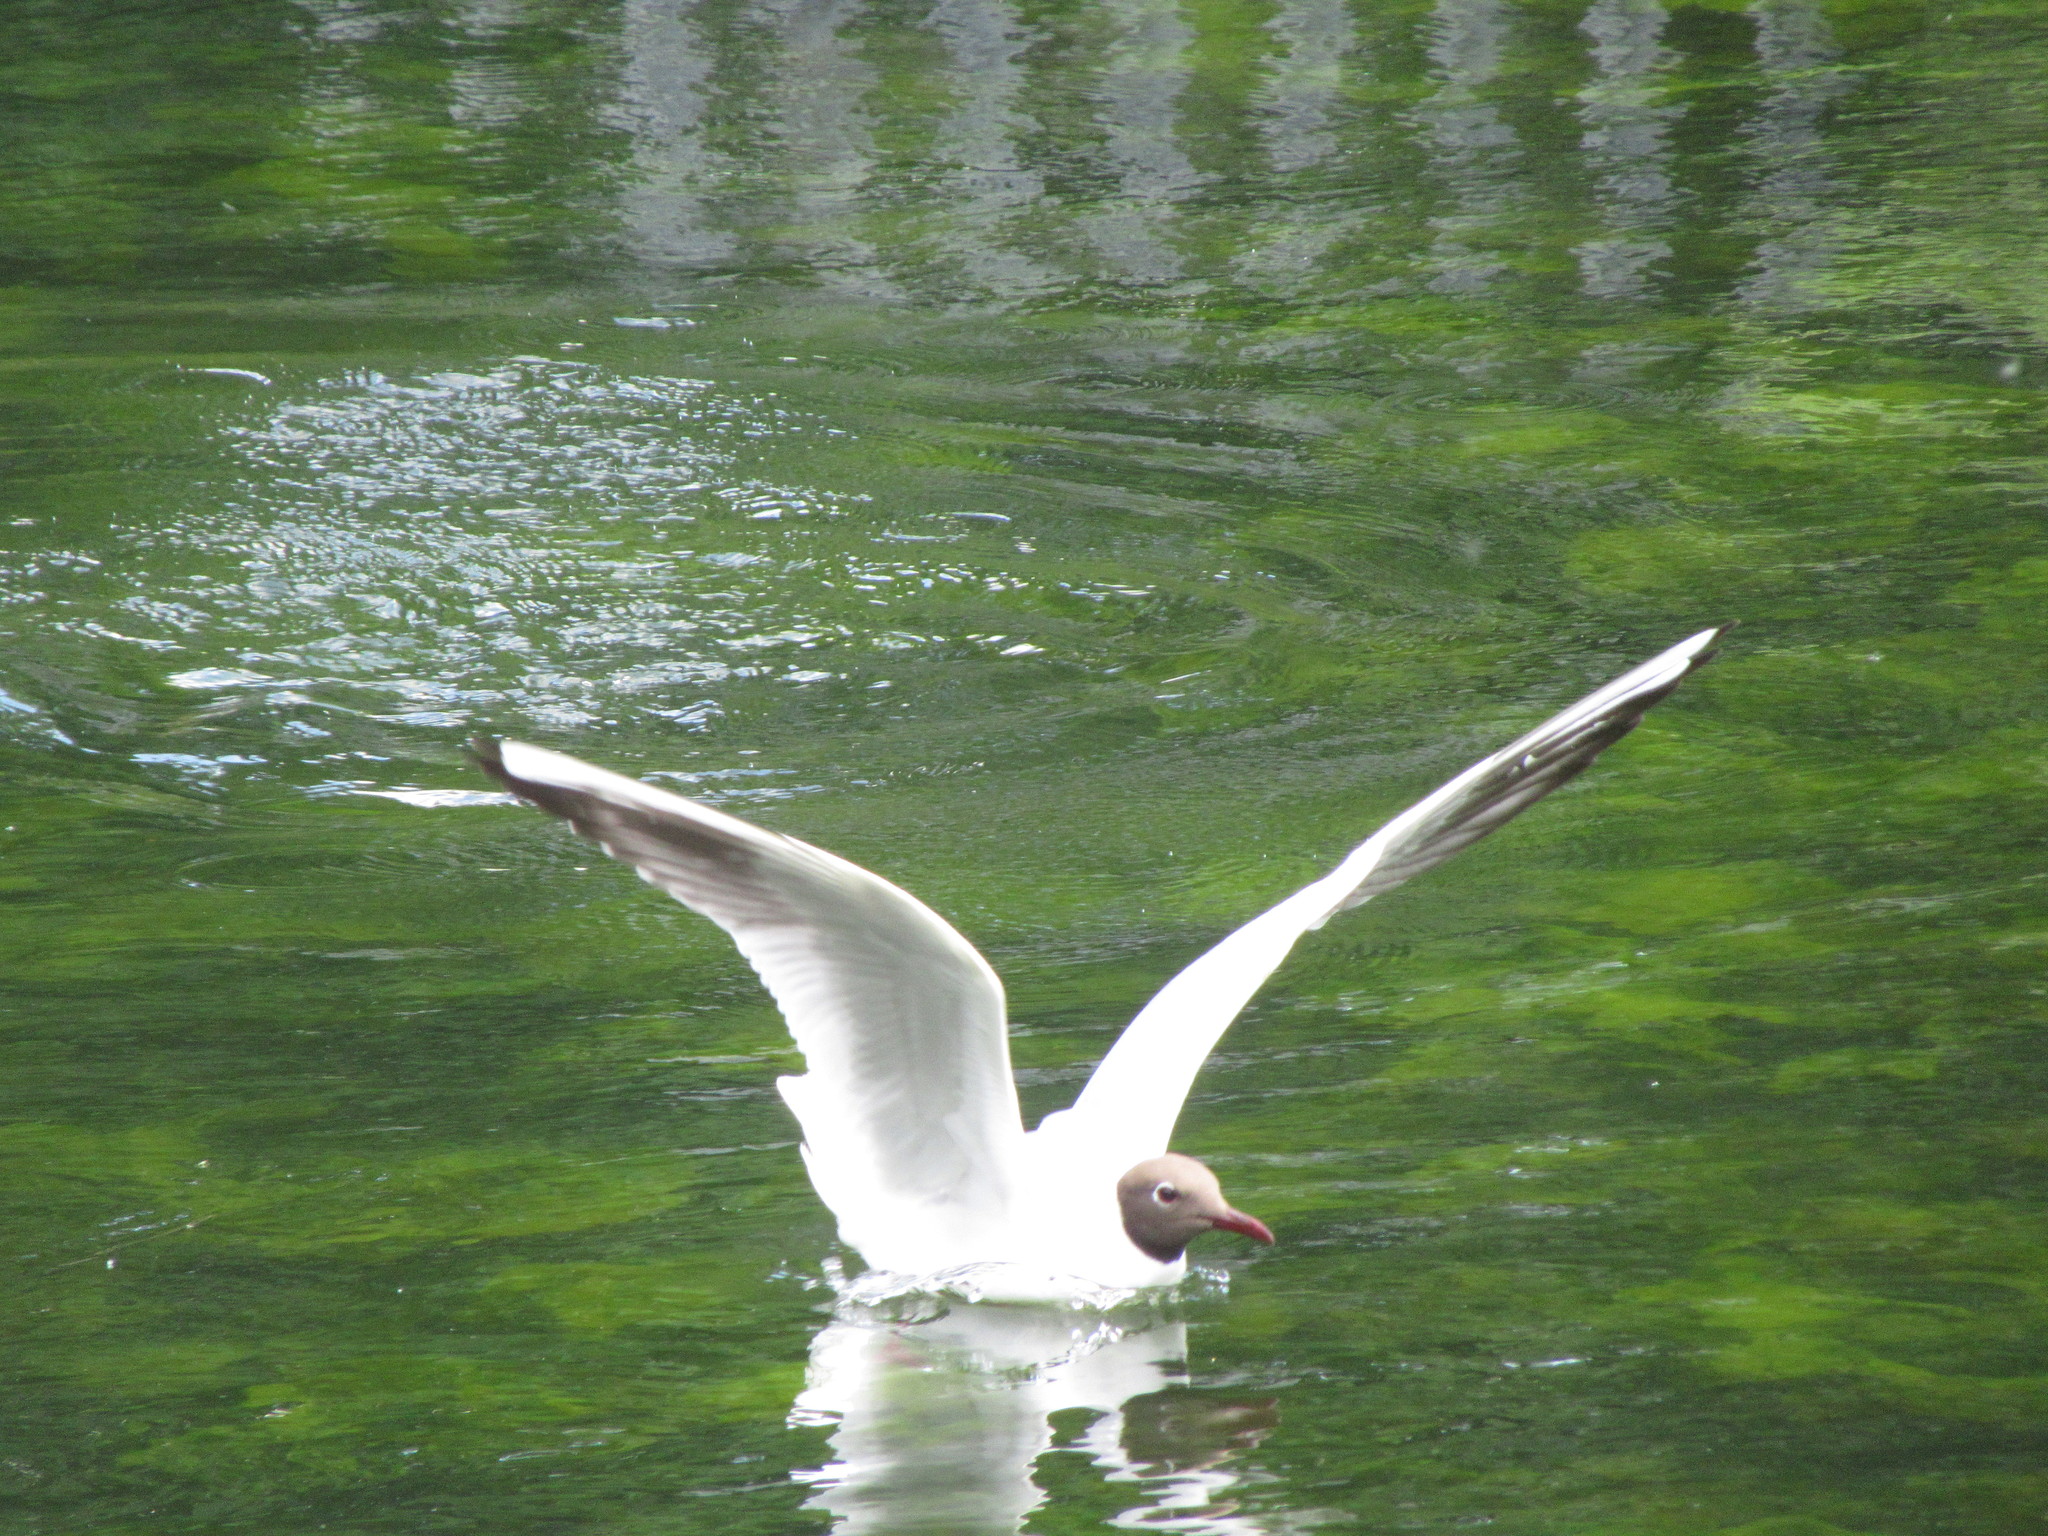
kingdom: Animalia
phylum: Chordata
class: Aves
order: Charadriiformes
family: Laridae
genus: Chroicocephalus
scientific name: Chroicocephalus ridibundus
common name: Black-headed gull
